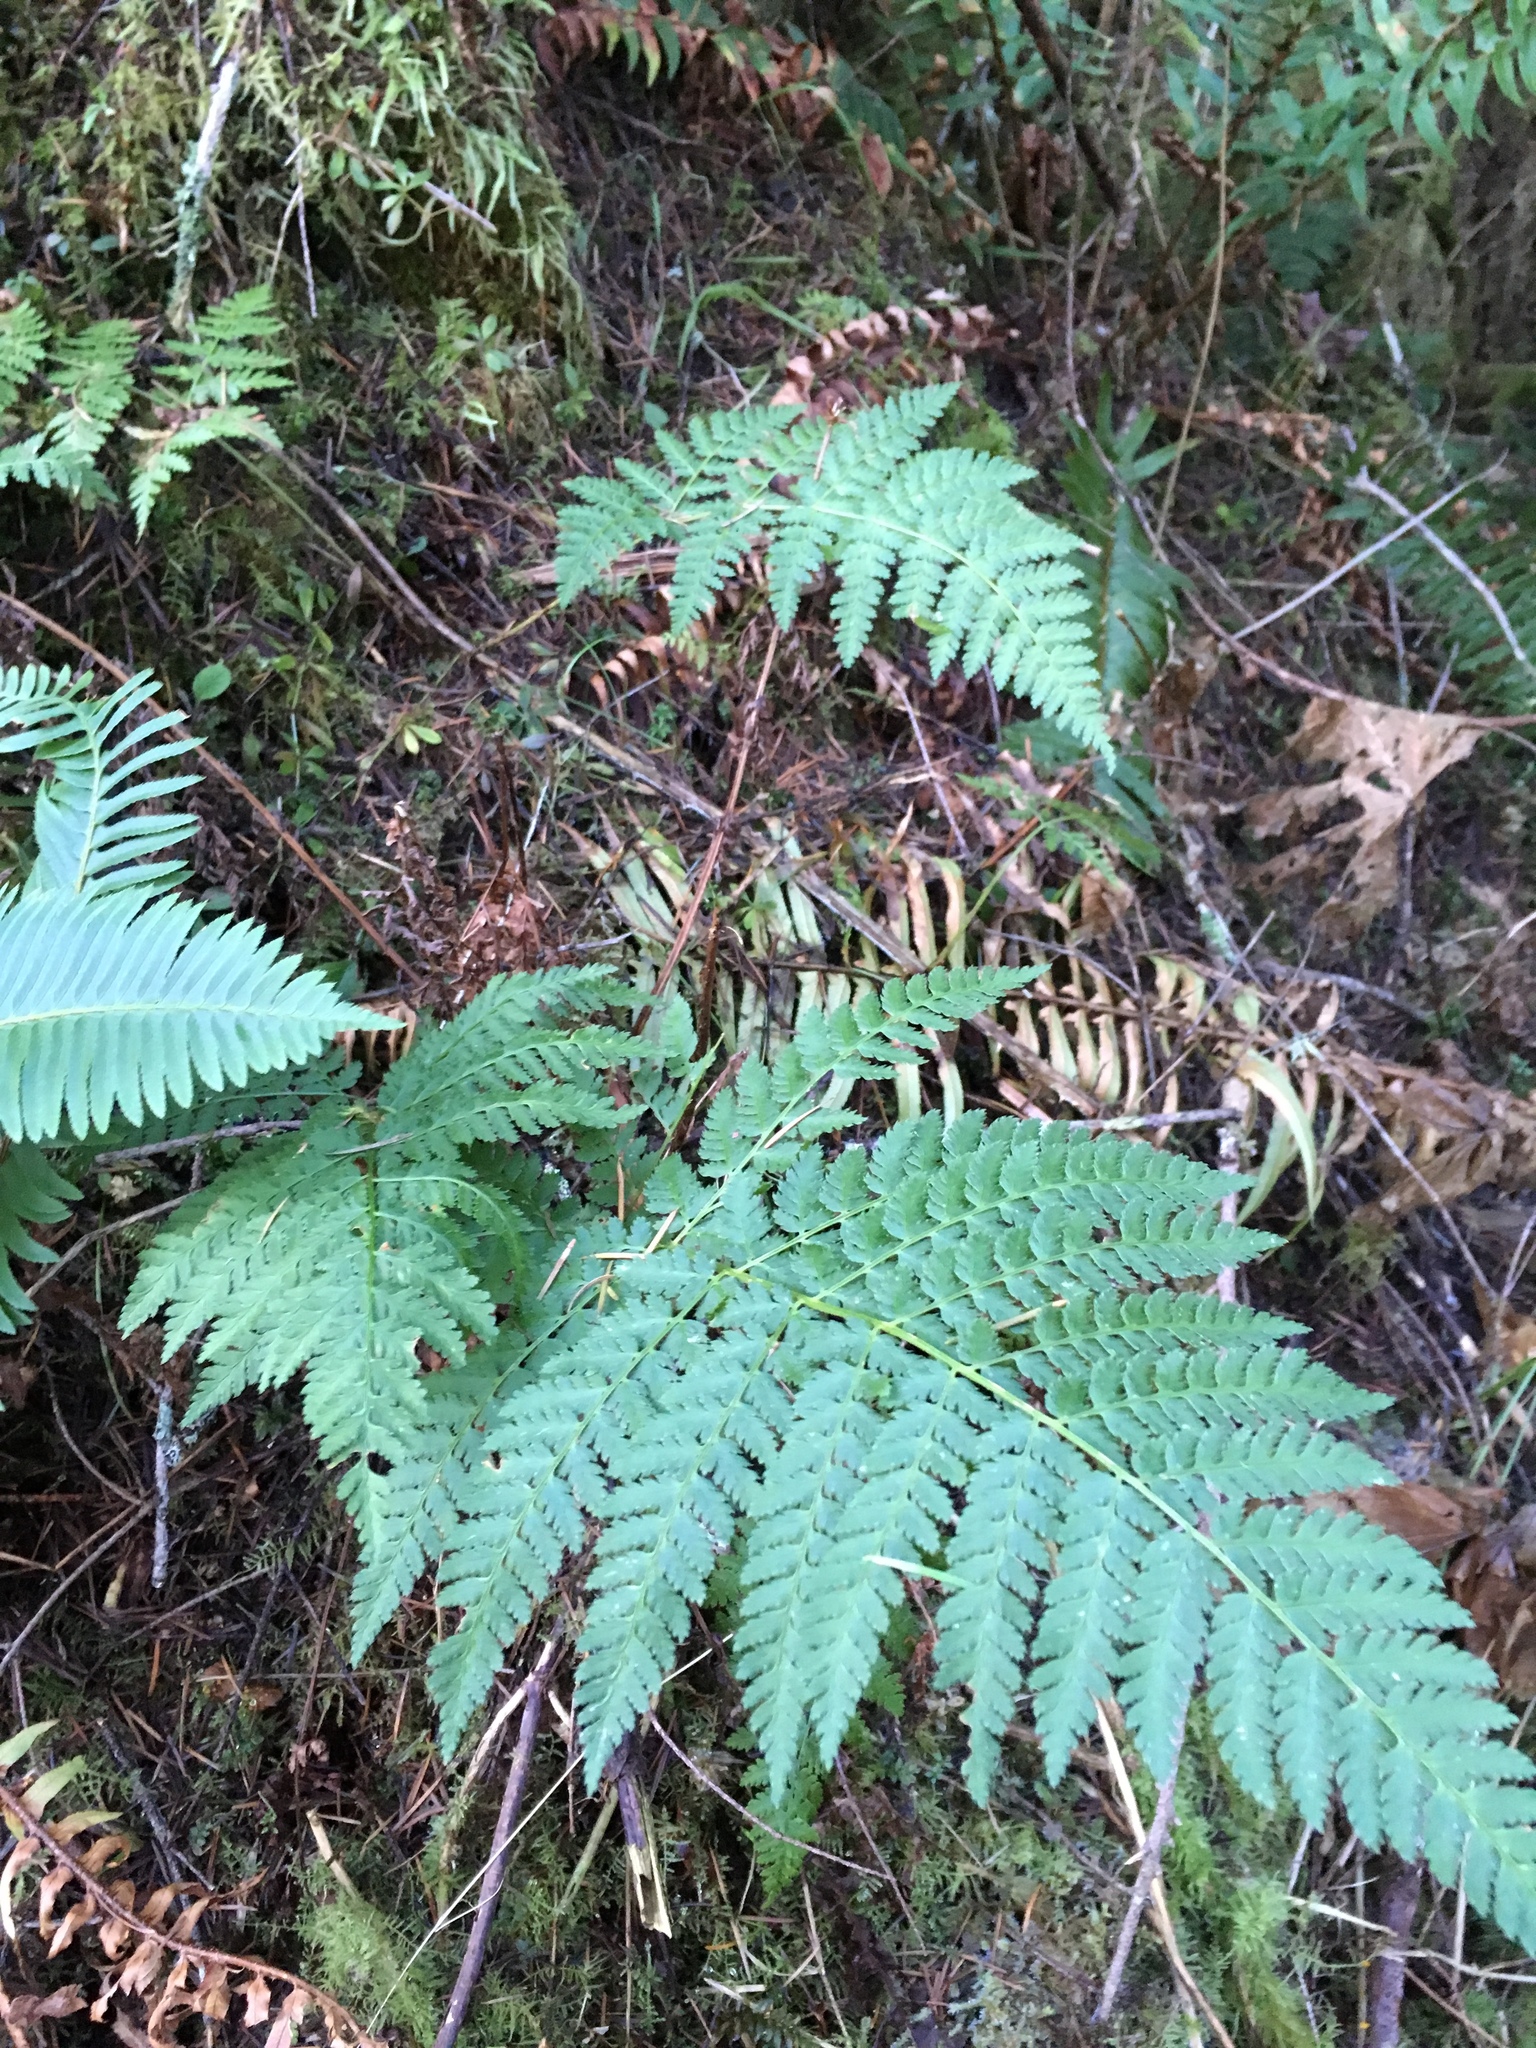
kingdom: Plantae
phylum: Tracheophyta
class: Polypodiopsida
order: Polypodiales
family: Dryopteridaceae
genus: Dryopteris
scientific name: Dryopteris expansa
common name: Northern buckler fern
